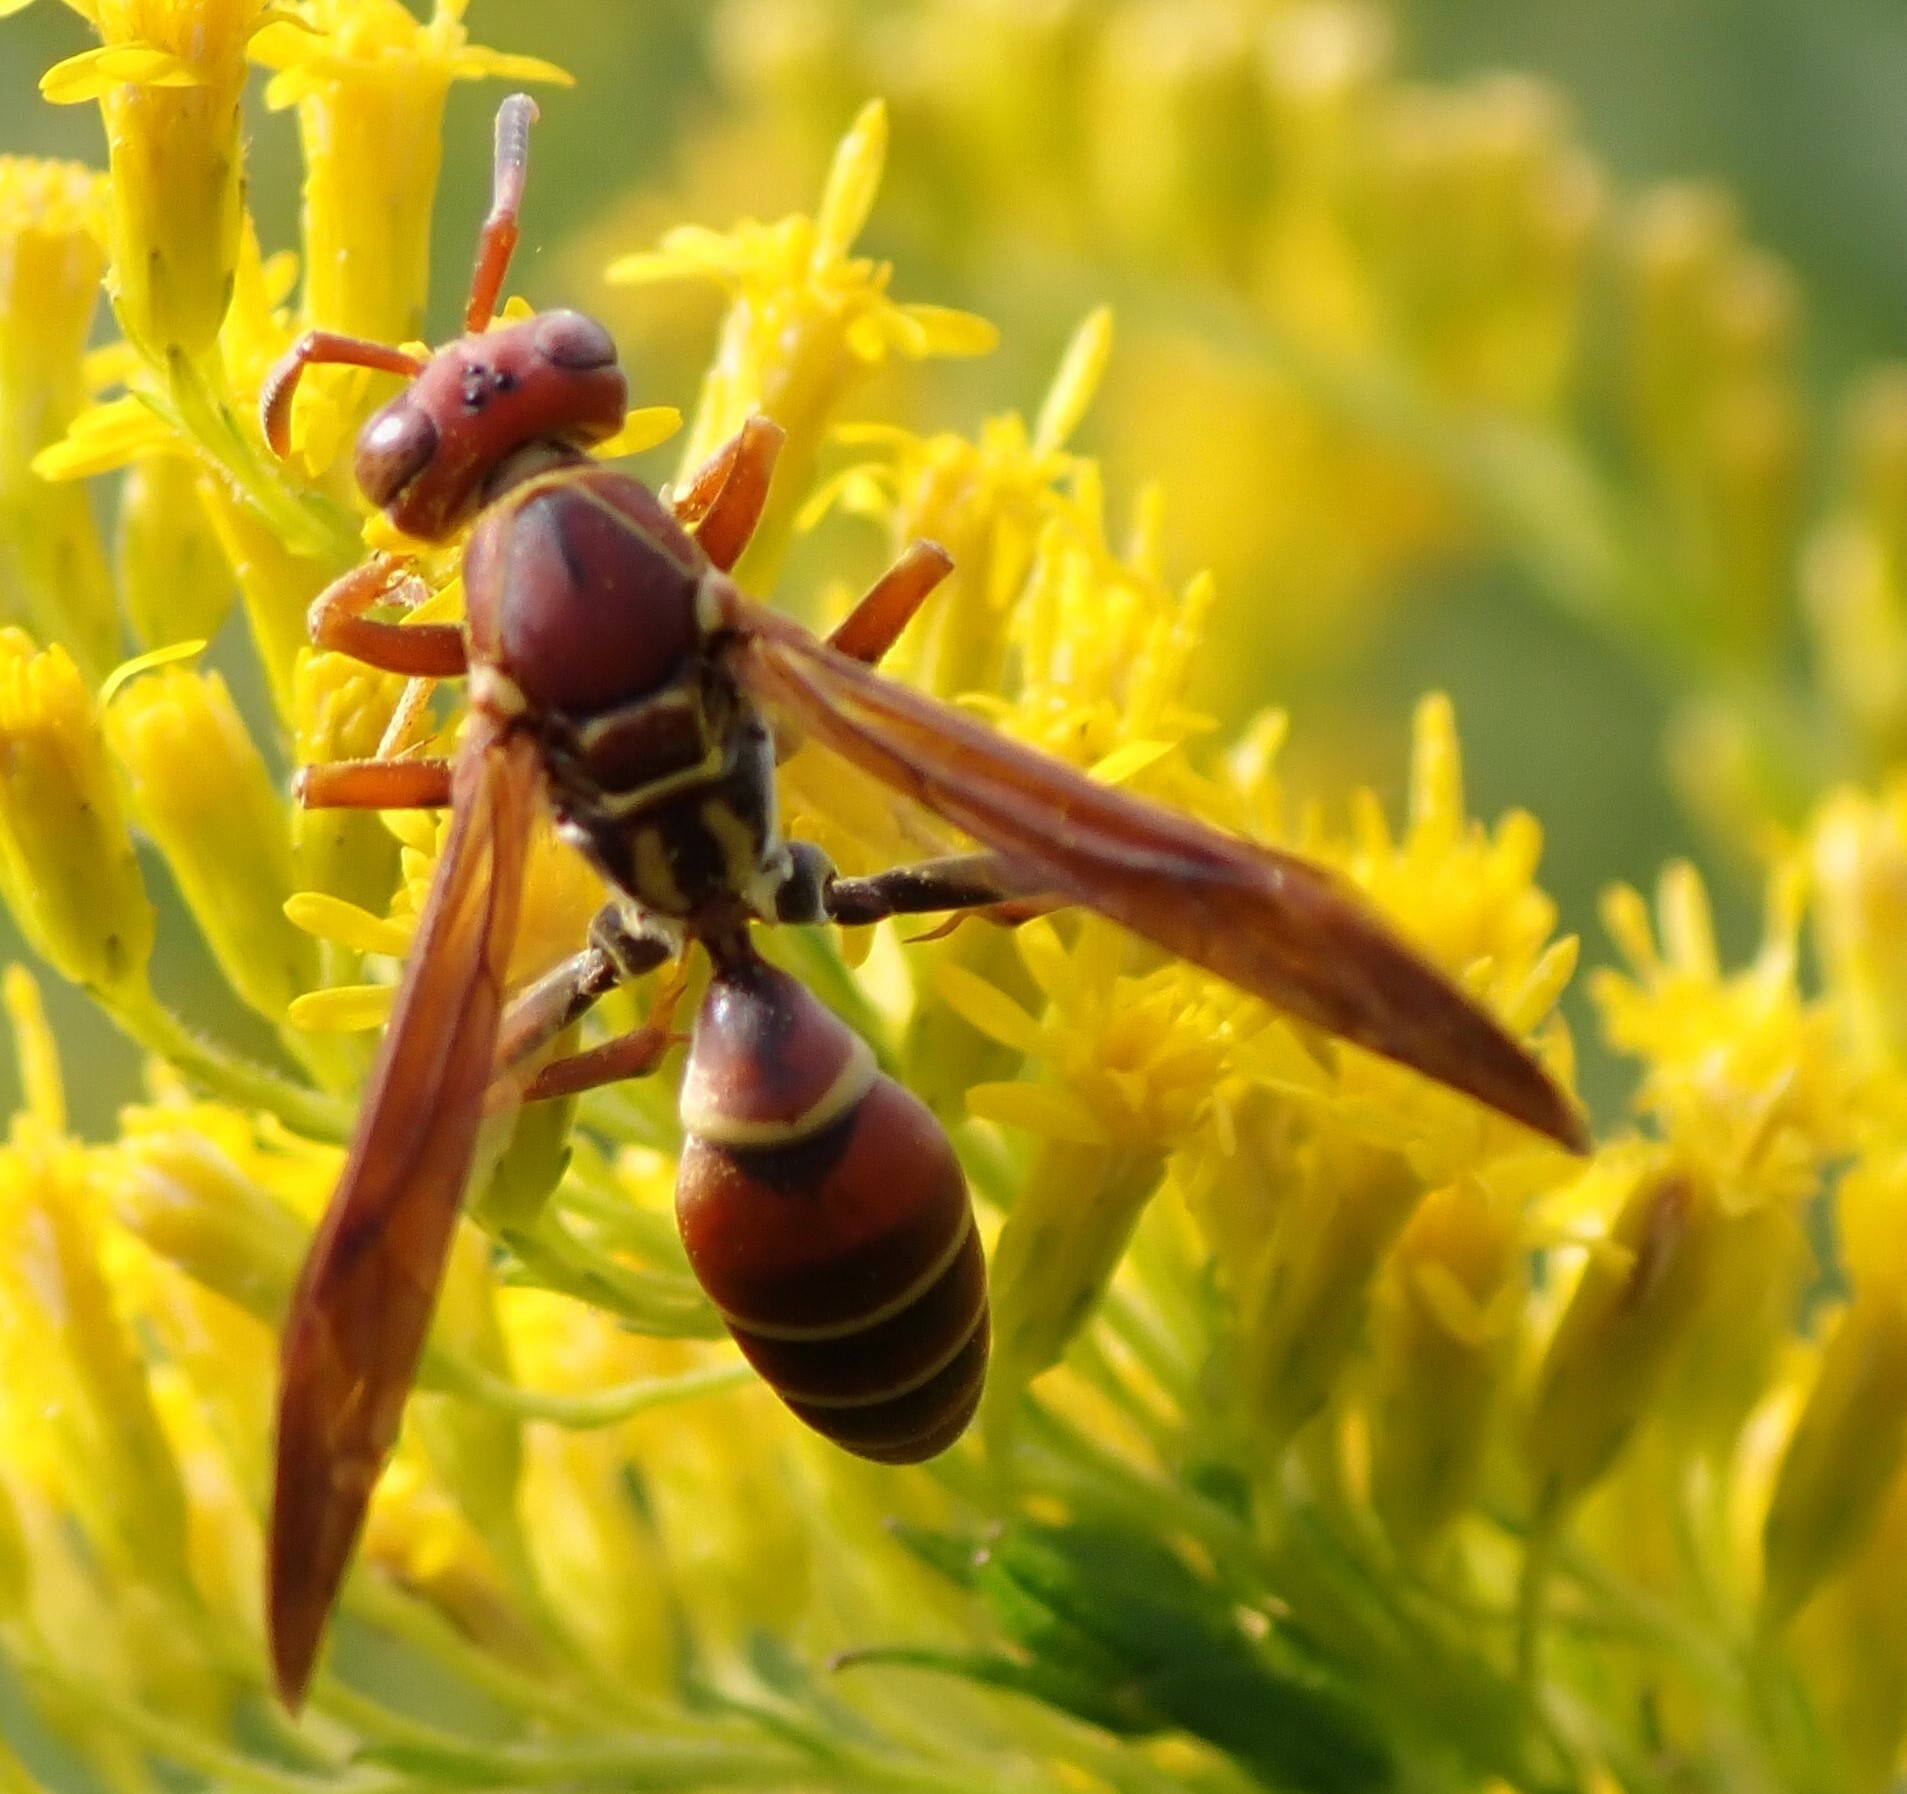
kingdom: Animalia
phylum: Arthropoda
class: Insecta
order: Hymenoptera
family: Eumenidae
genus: Polistes
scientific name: Polistes dorsalis
